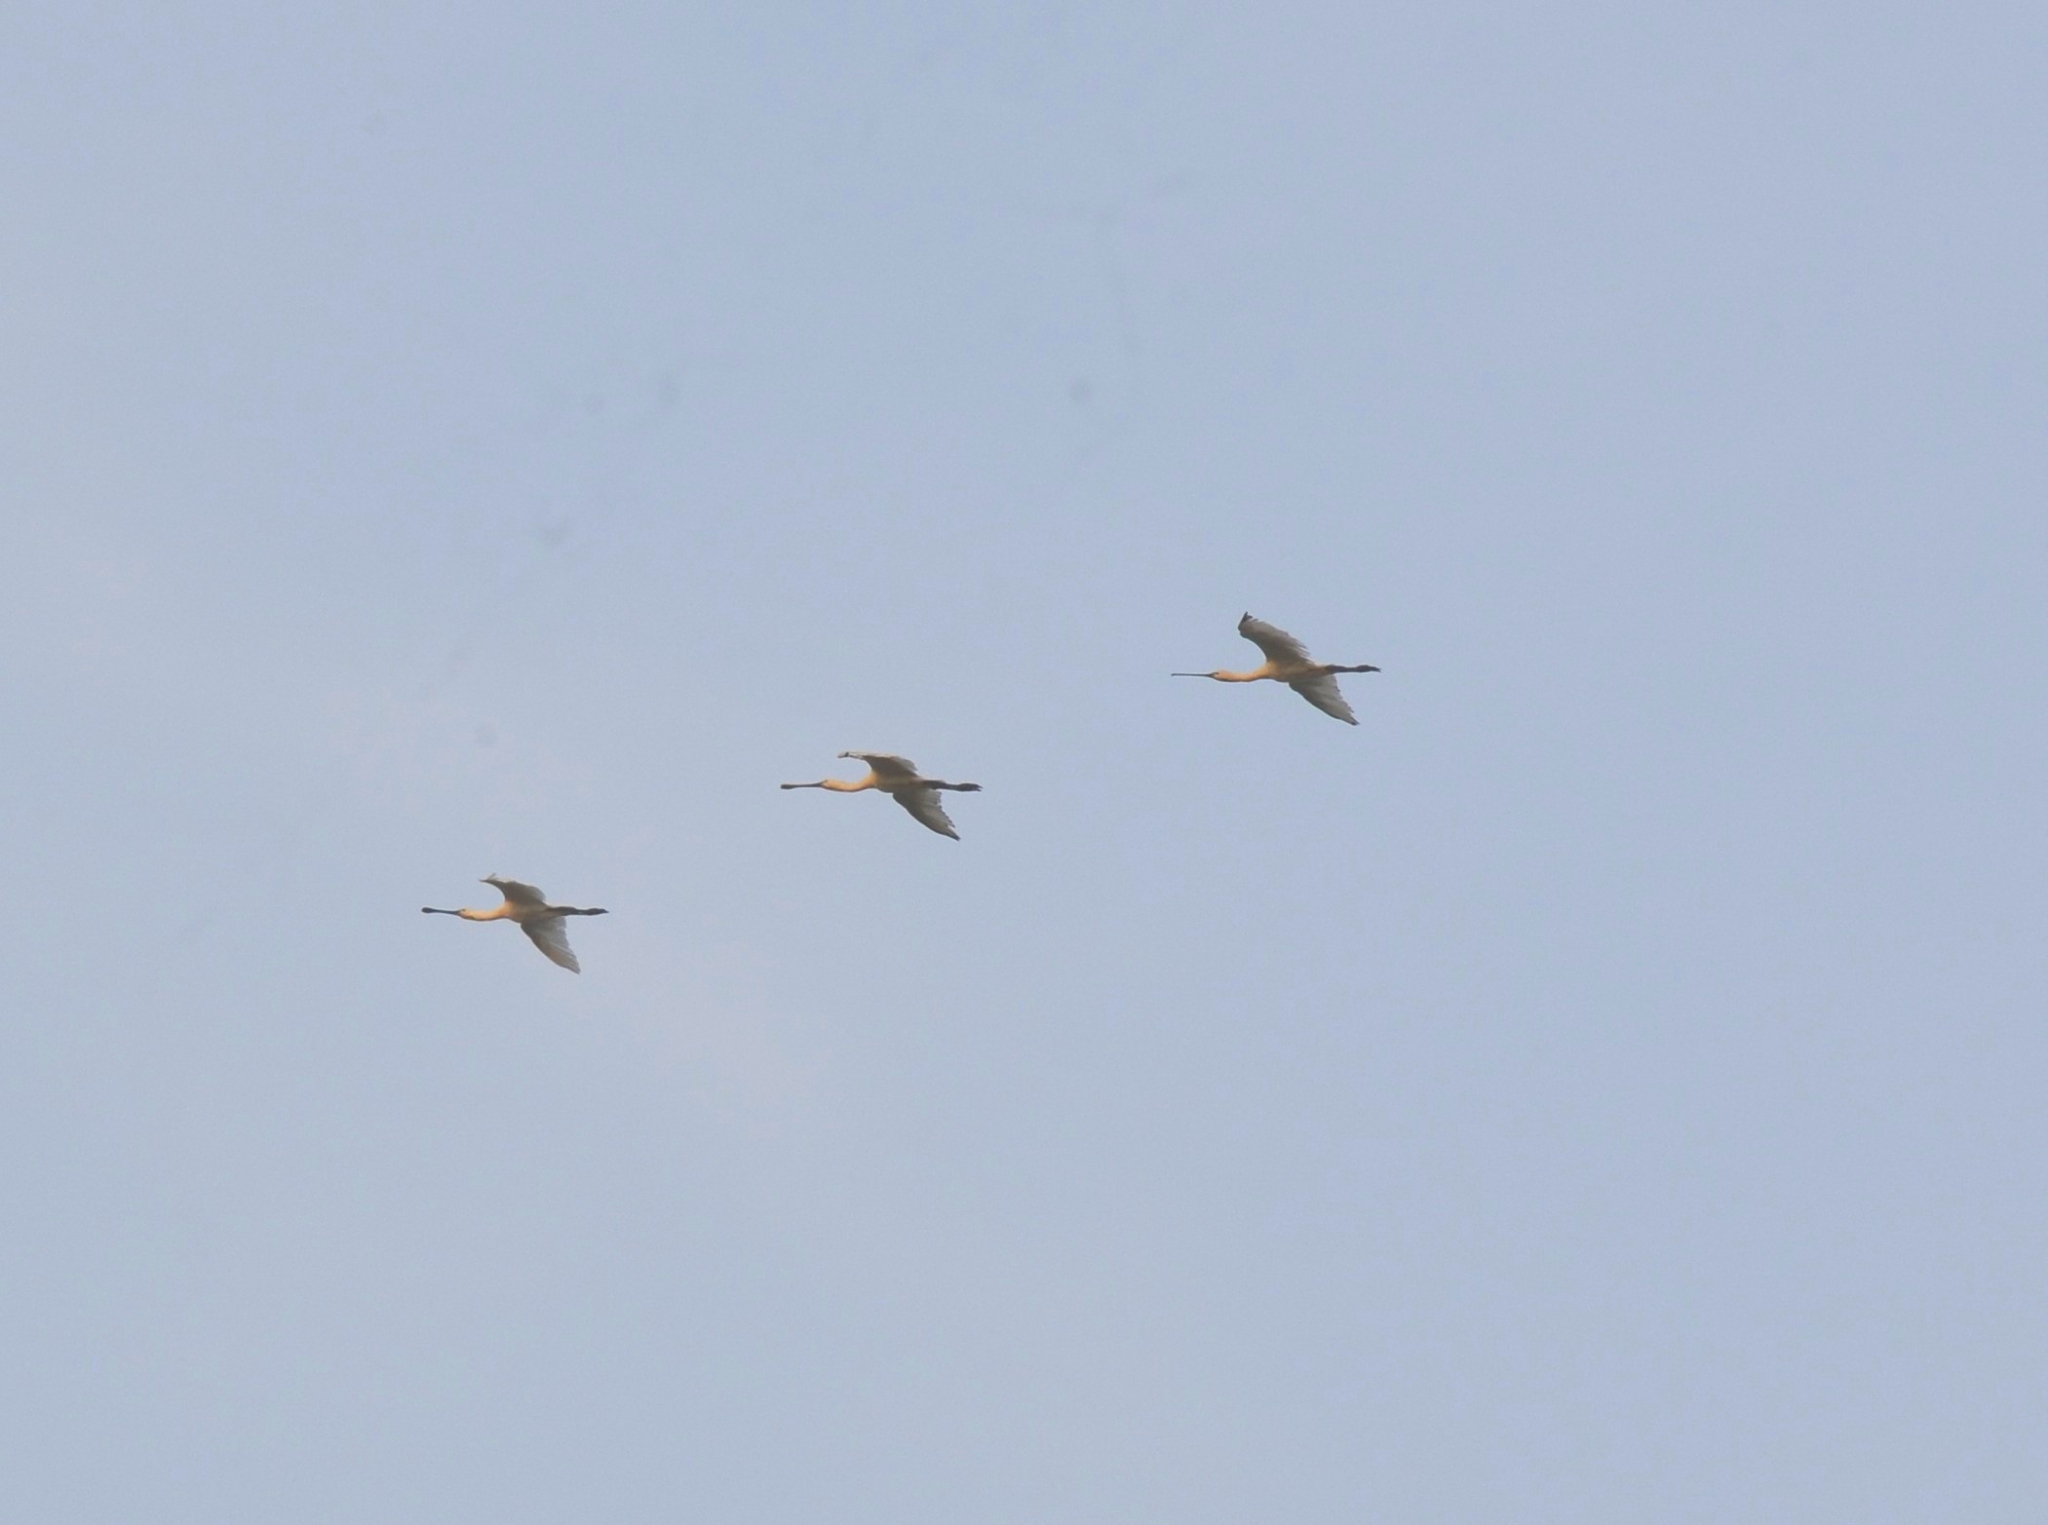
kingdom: Animalia
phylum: Chordata
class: Aves
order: Pelecaniformes
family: Threskiornithidae
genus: Platalea
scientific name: Platalea leucorodia
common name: Eurasian spoonbill
